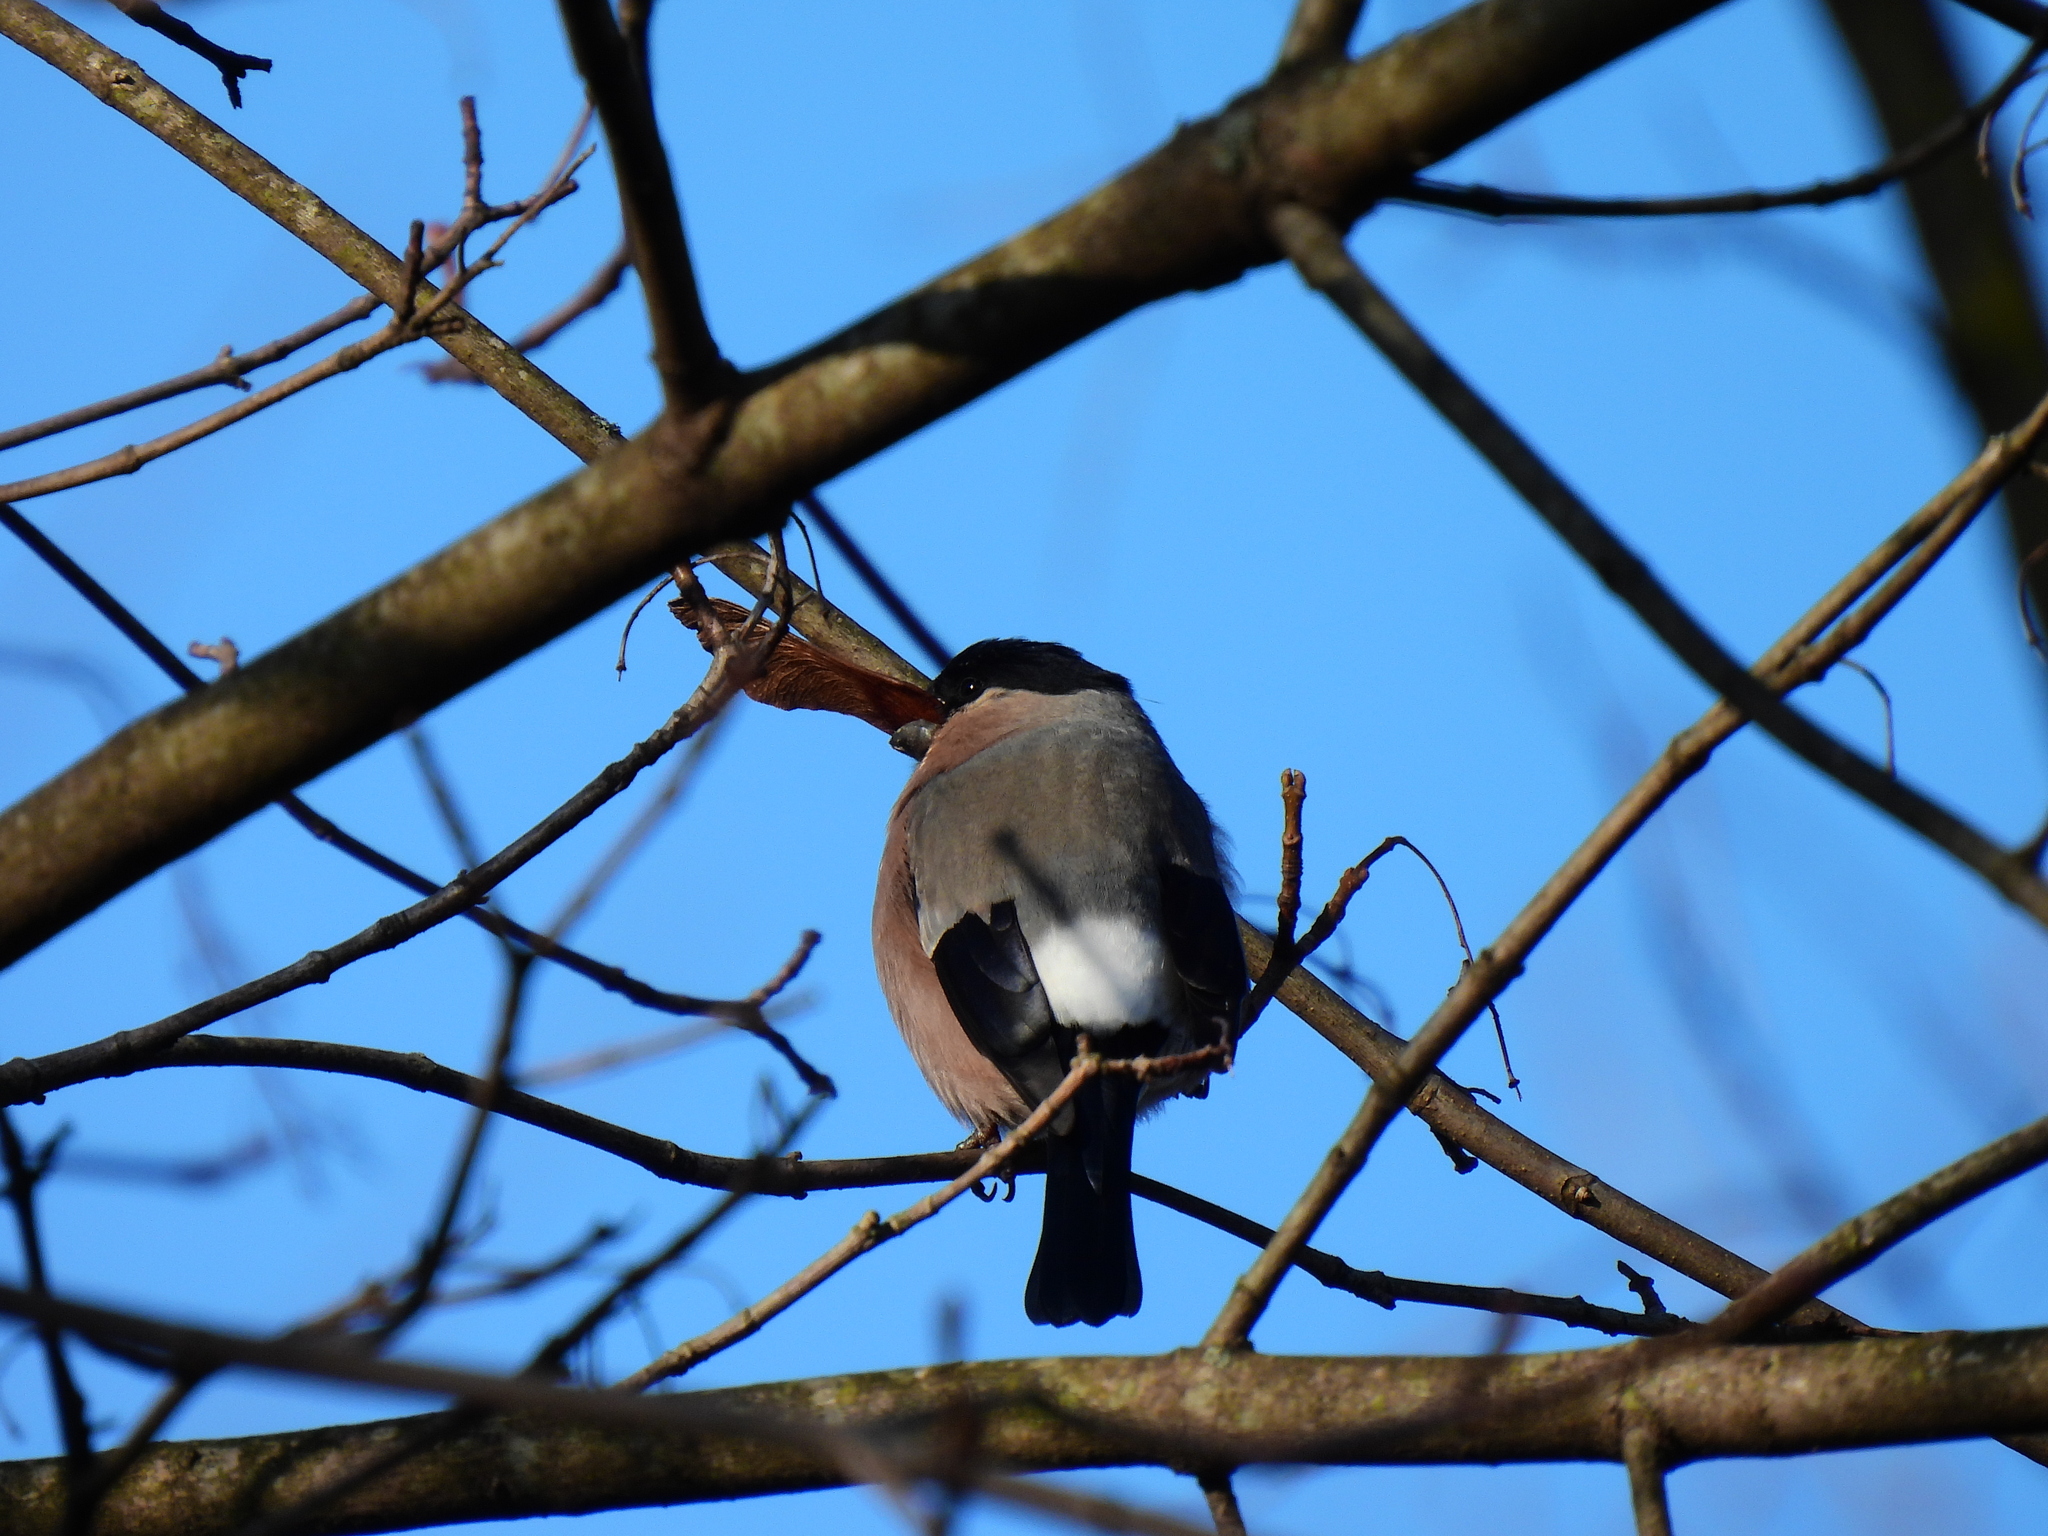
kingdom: Animalia
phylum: Chordata
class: Aves
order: Passeriformes
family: Fringillidae
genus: Pyrrhula
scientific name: Pyrrhula pyrrhula
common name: Eurasian bullfinch
